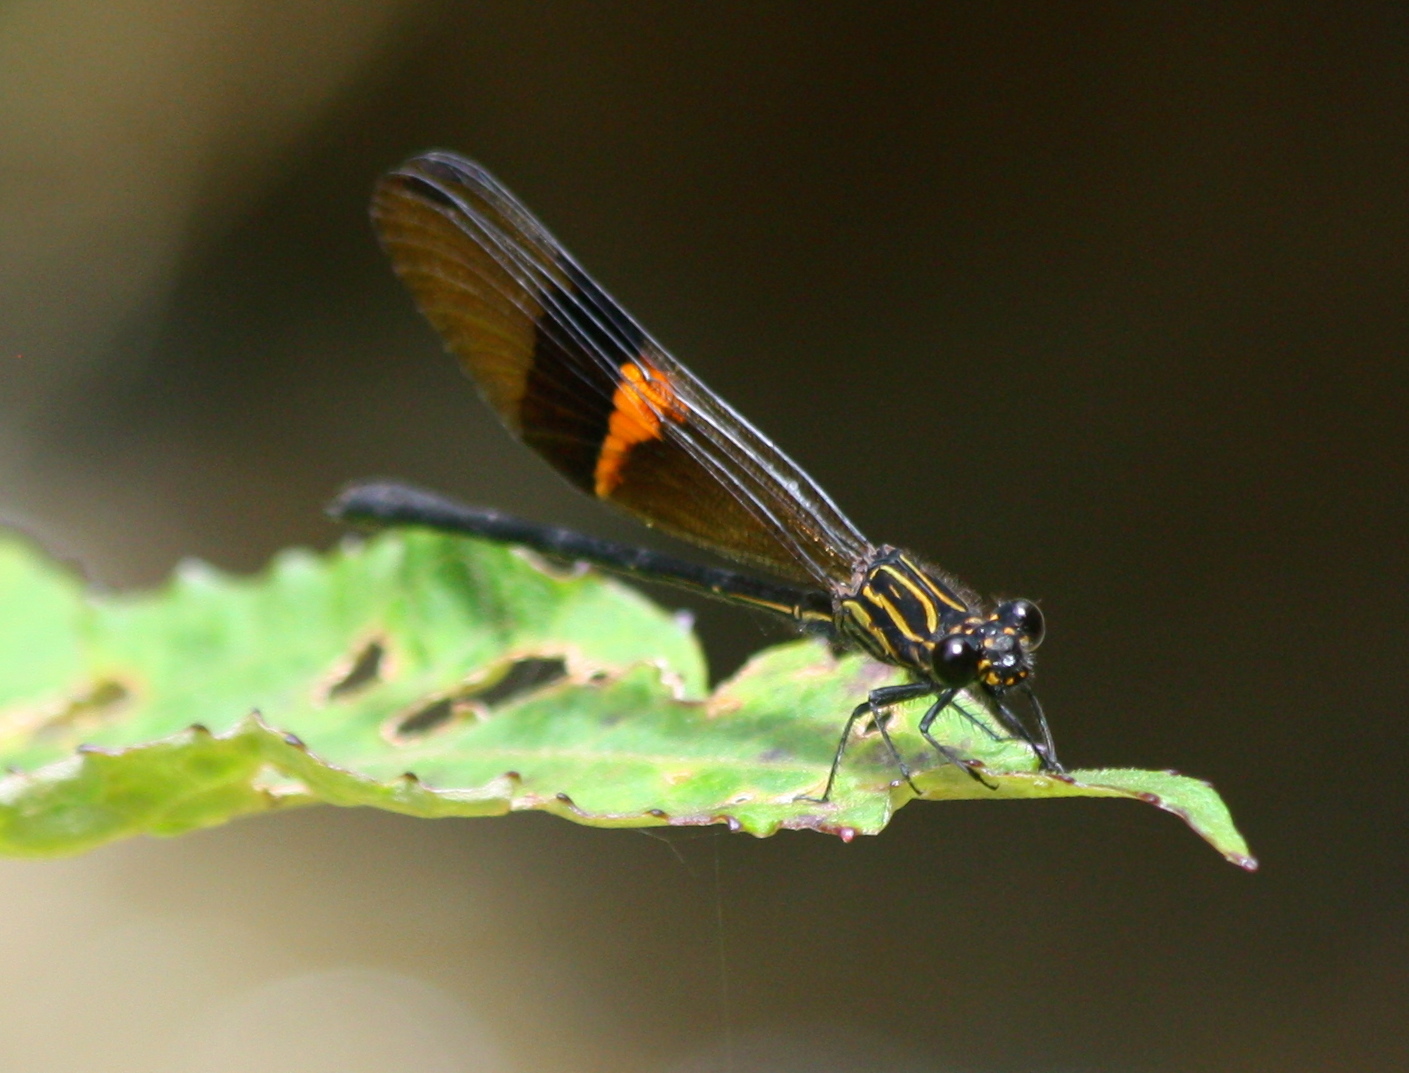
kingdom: Animalia
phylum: Arthropoda
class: Insecta
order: Odonata
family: Polythoridae
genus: Euthore
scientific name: Euthore fassli
